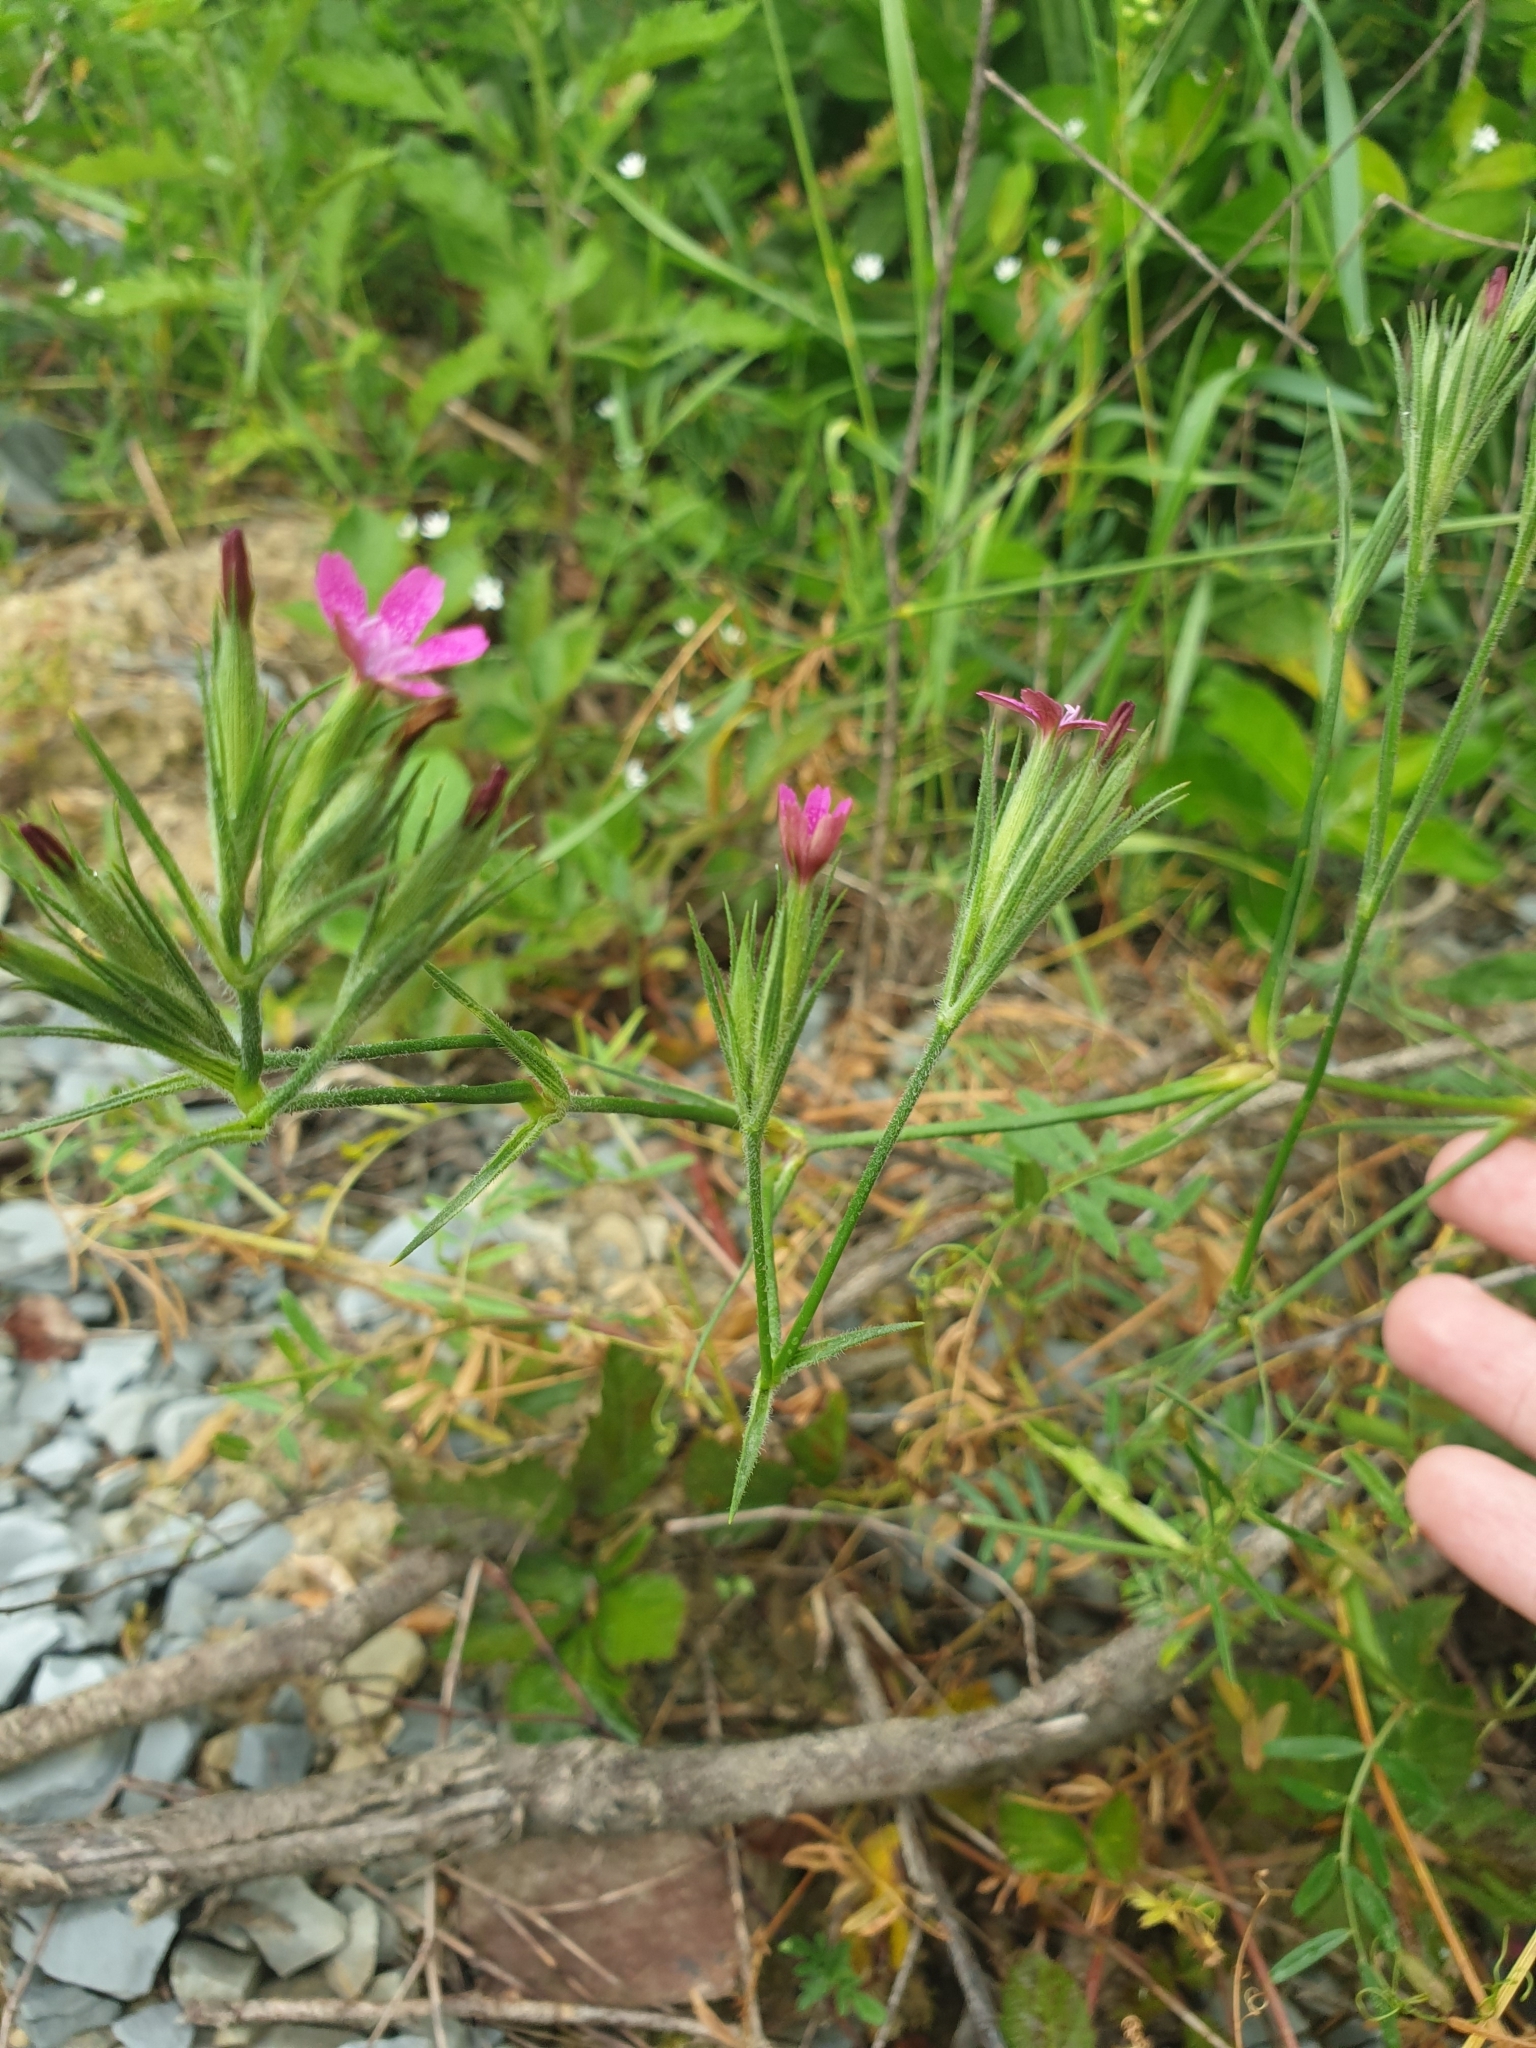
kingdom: Plantae
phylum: Tracheophyta
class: Magnoliopsida
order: Caryophyllales
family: Caryophyllaceae
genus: Dianthus
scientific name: Dianthus armeria
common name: Deptford pink
